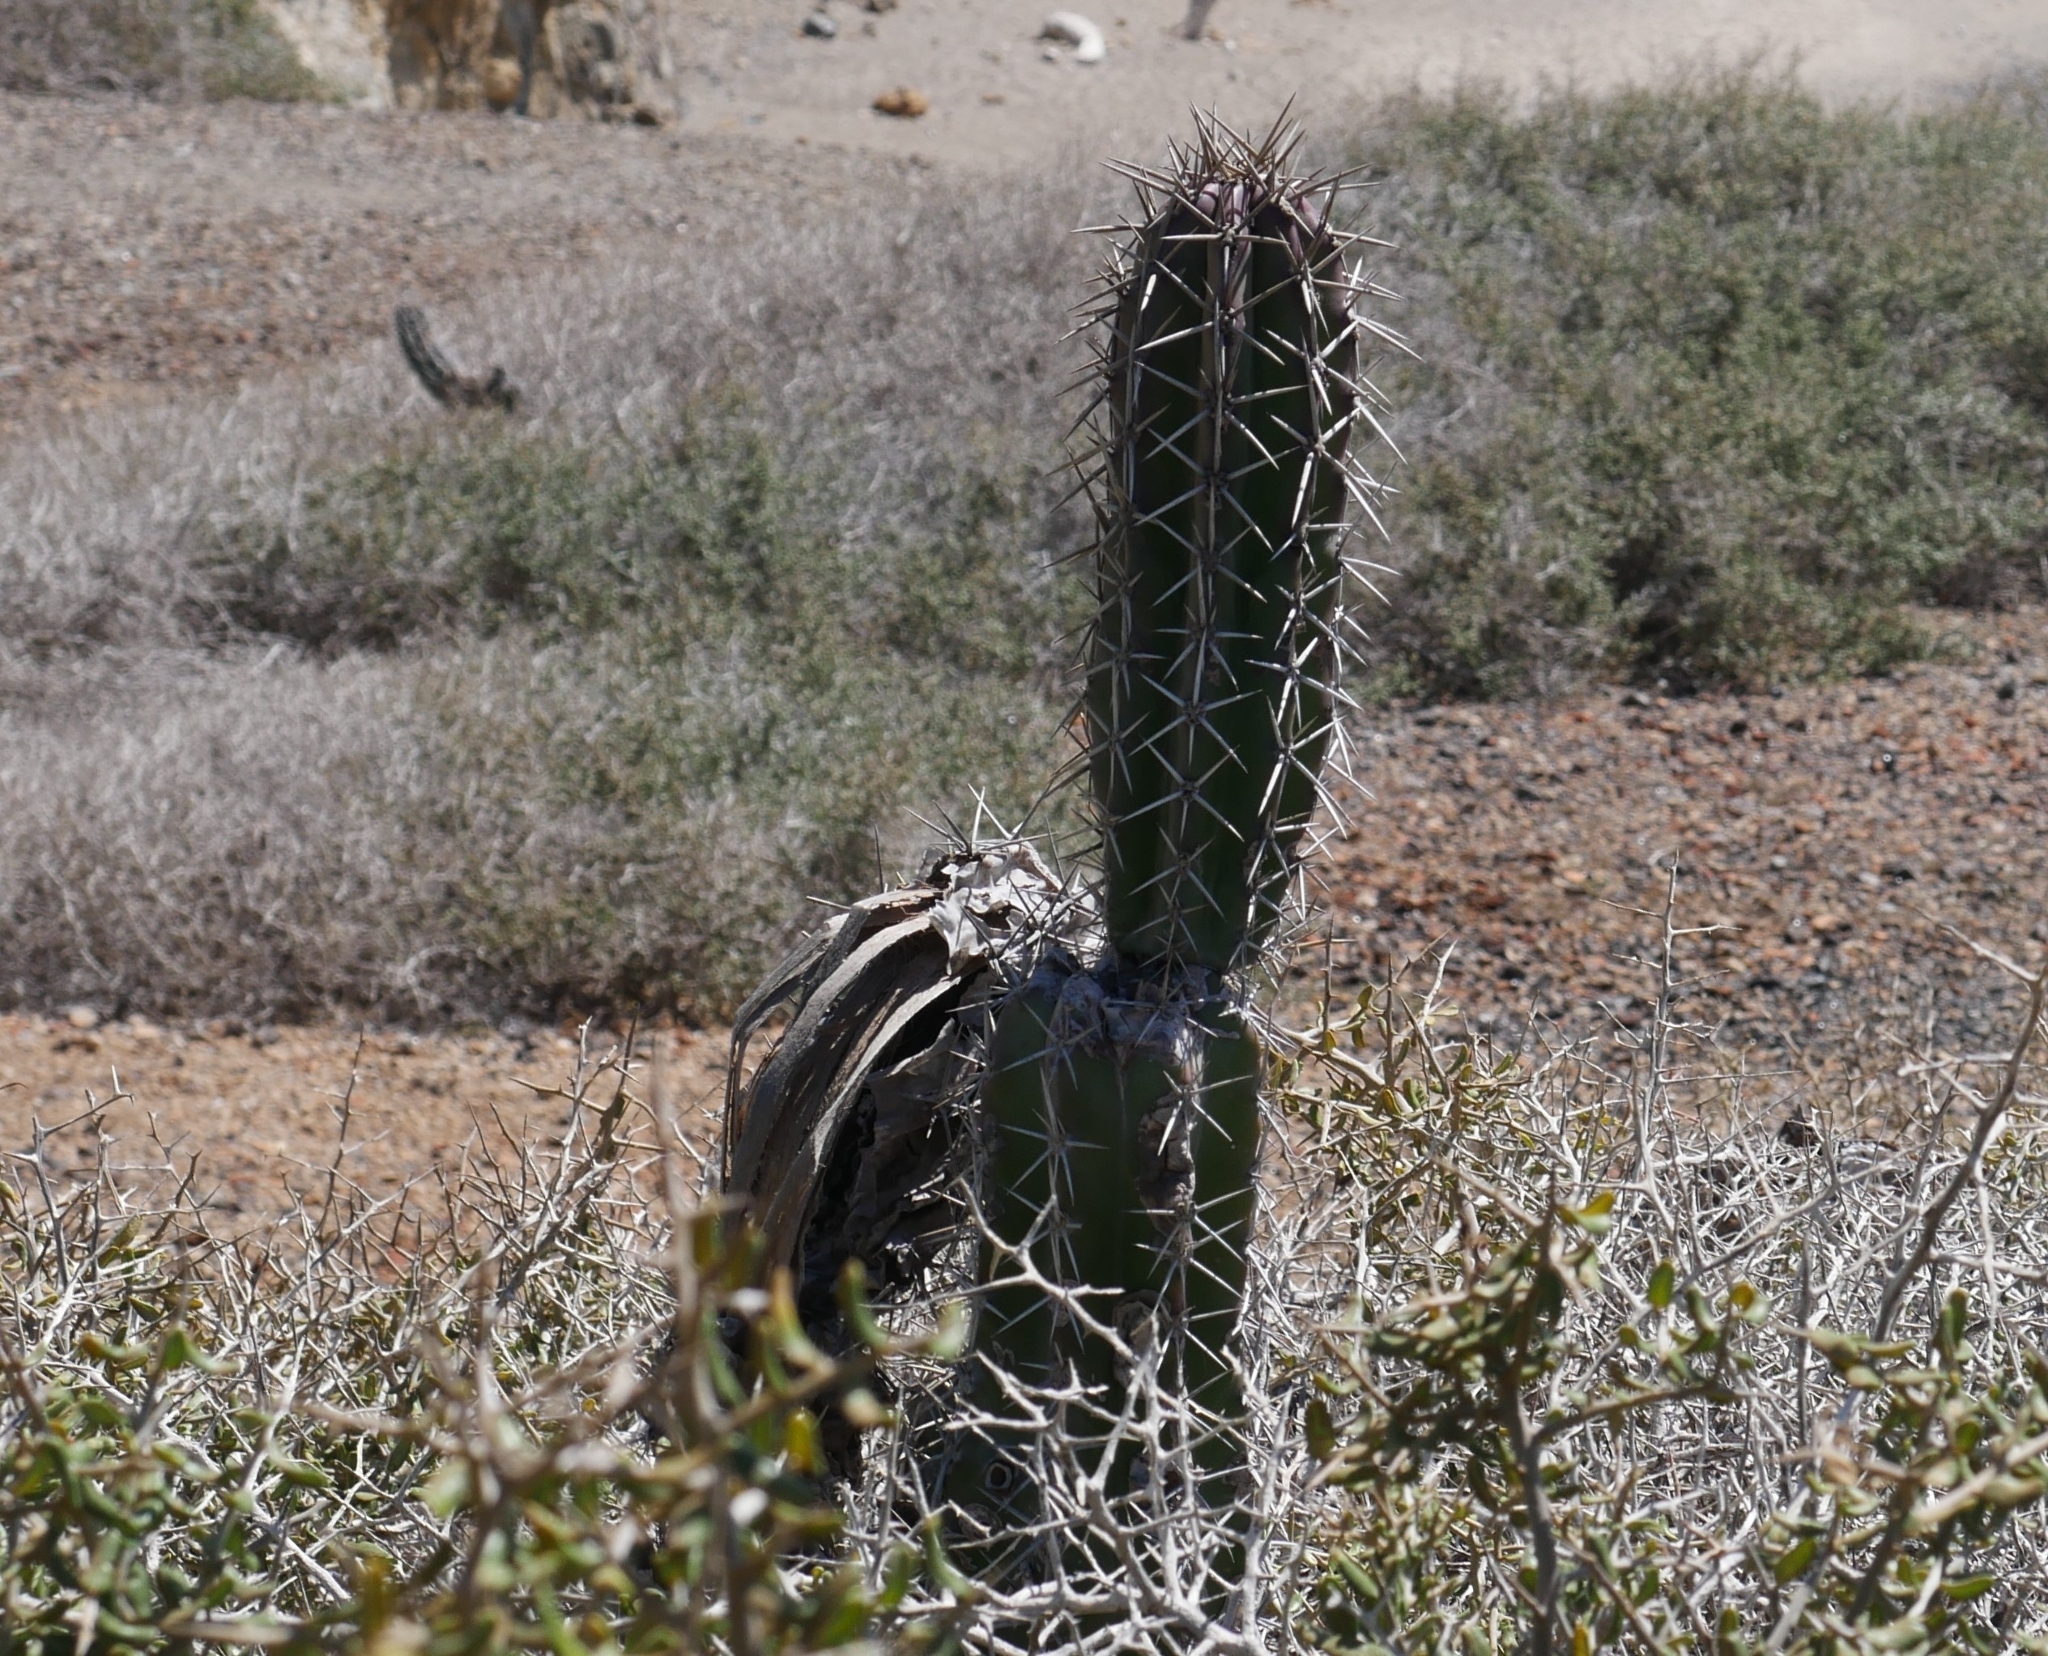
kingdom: Plantae
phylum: Tracheophyta
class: Magnoliopsida
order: Caryophyllales
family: Cactaceae
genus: Stenocereus
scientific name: Stenocereus griseus
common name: Tall candelabra cactus
